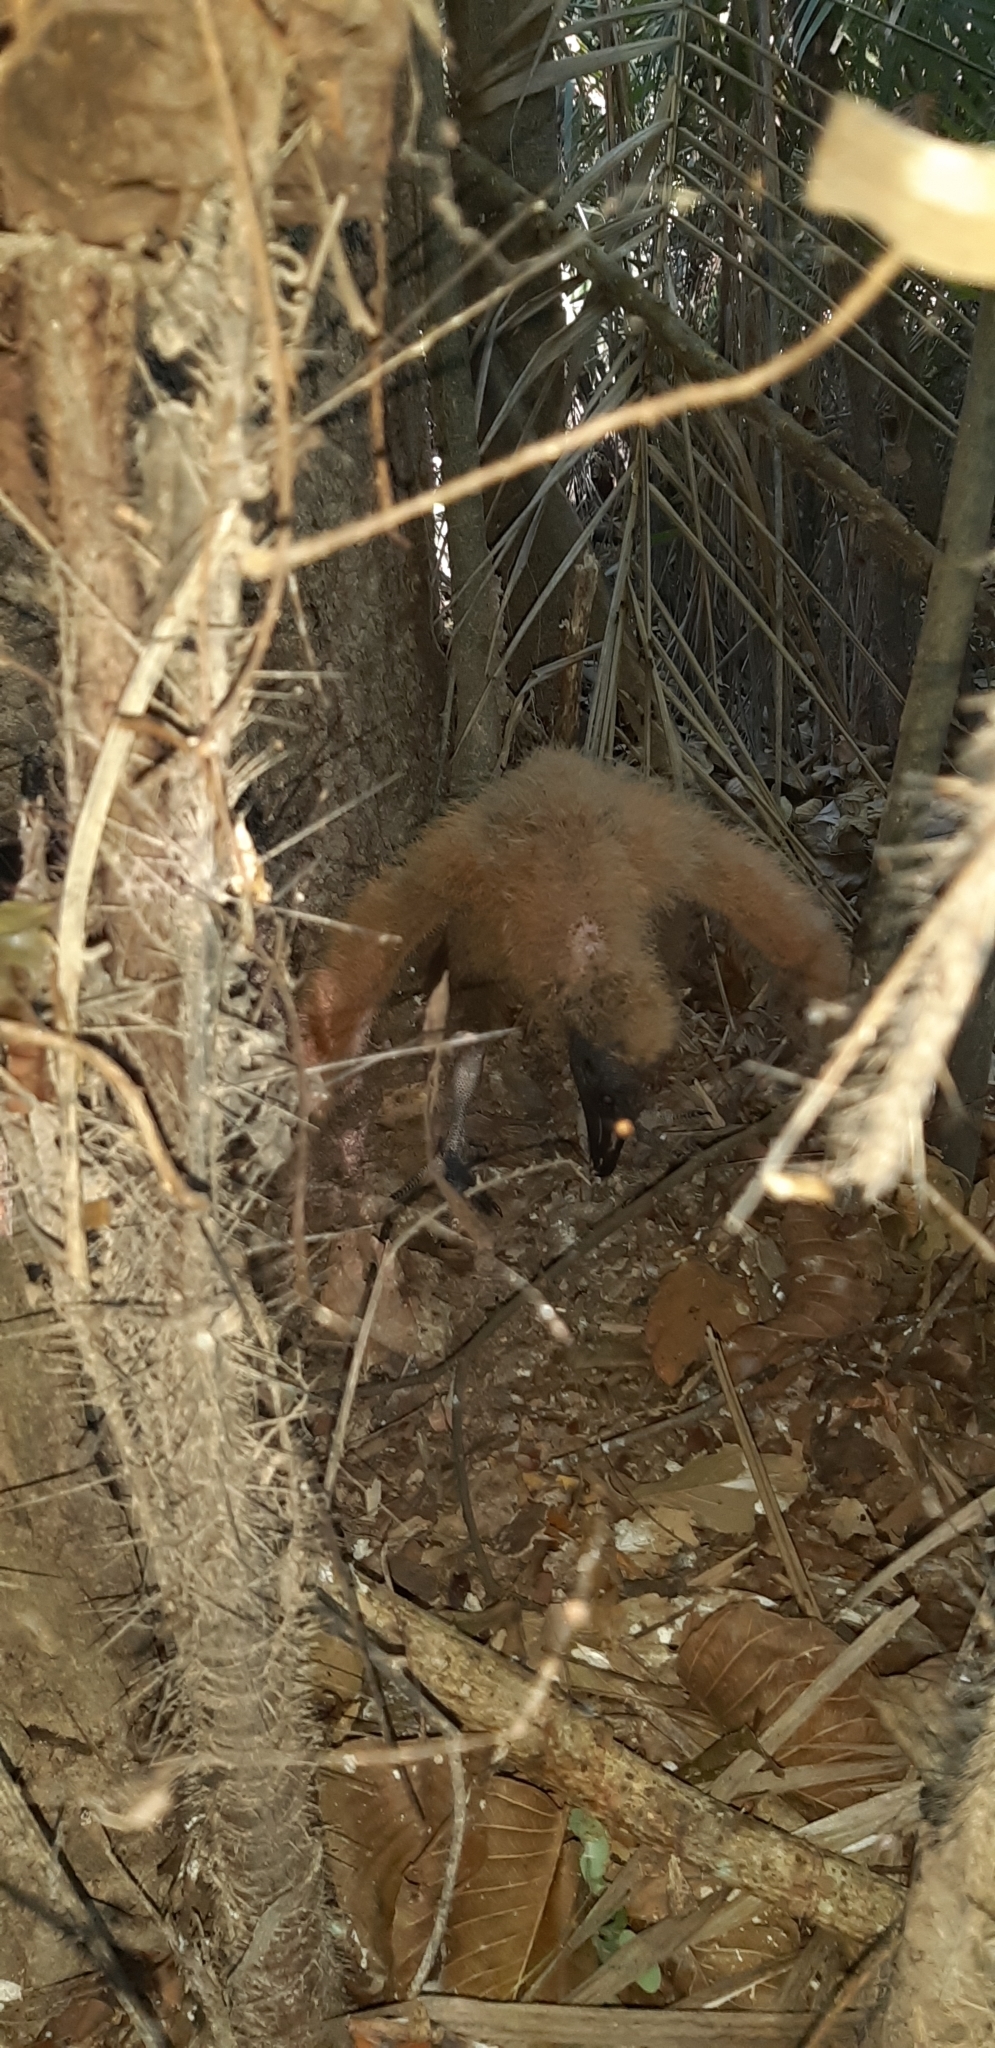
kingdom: Animalia
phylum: Chordata
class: Aves
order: Accipitriformes
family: Cathartidae
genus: Coragyps
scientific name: Coragyps atratus
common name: Black vulture
